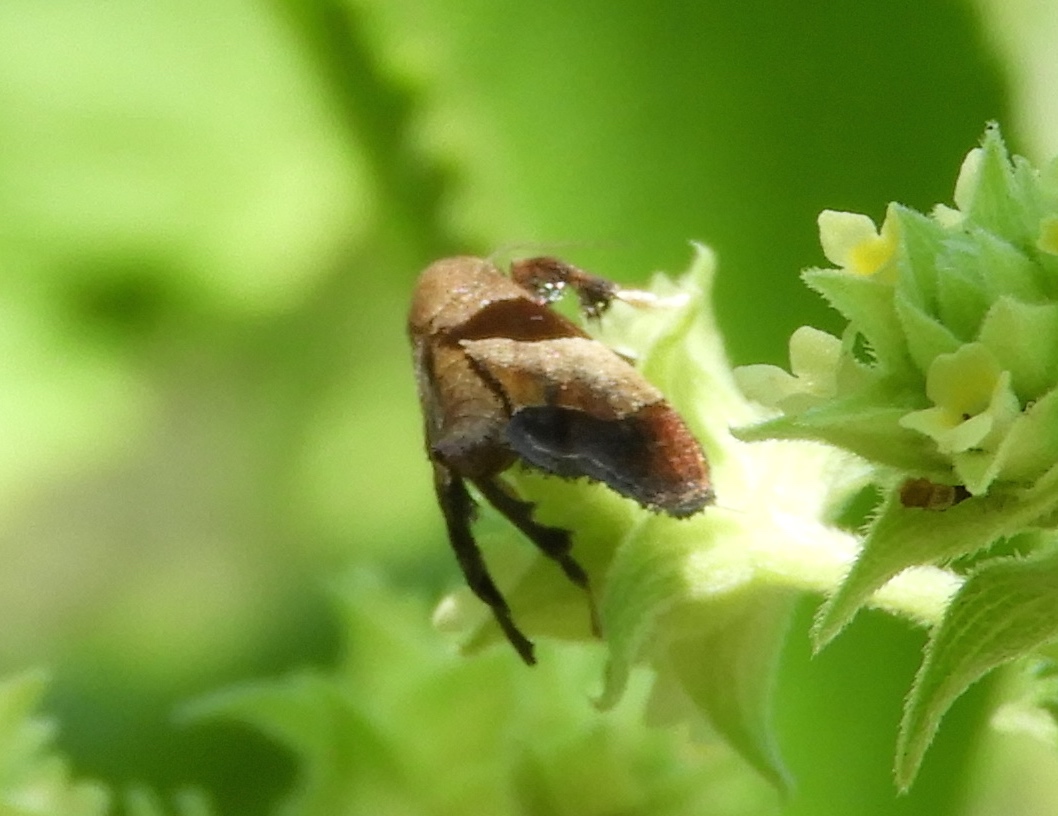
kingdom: Animalia
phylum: Arthropoda
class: Insecta
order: Lepidoptera
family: Pyralidae
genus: Tosale
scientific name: Tosale
